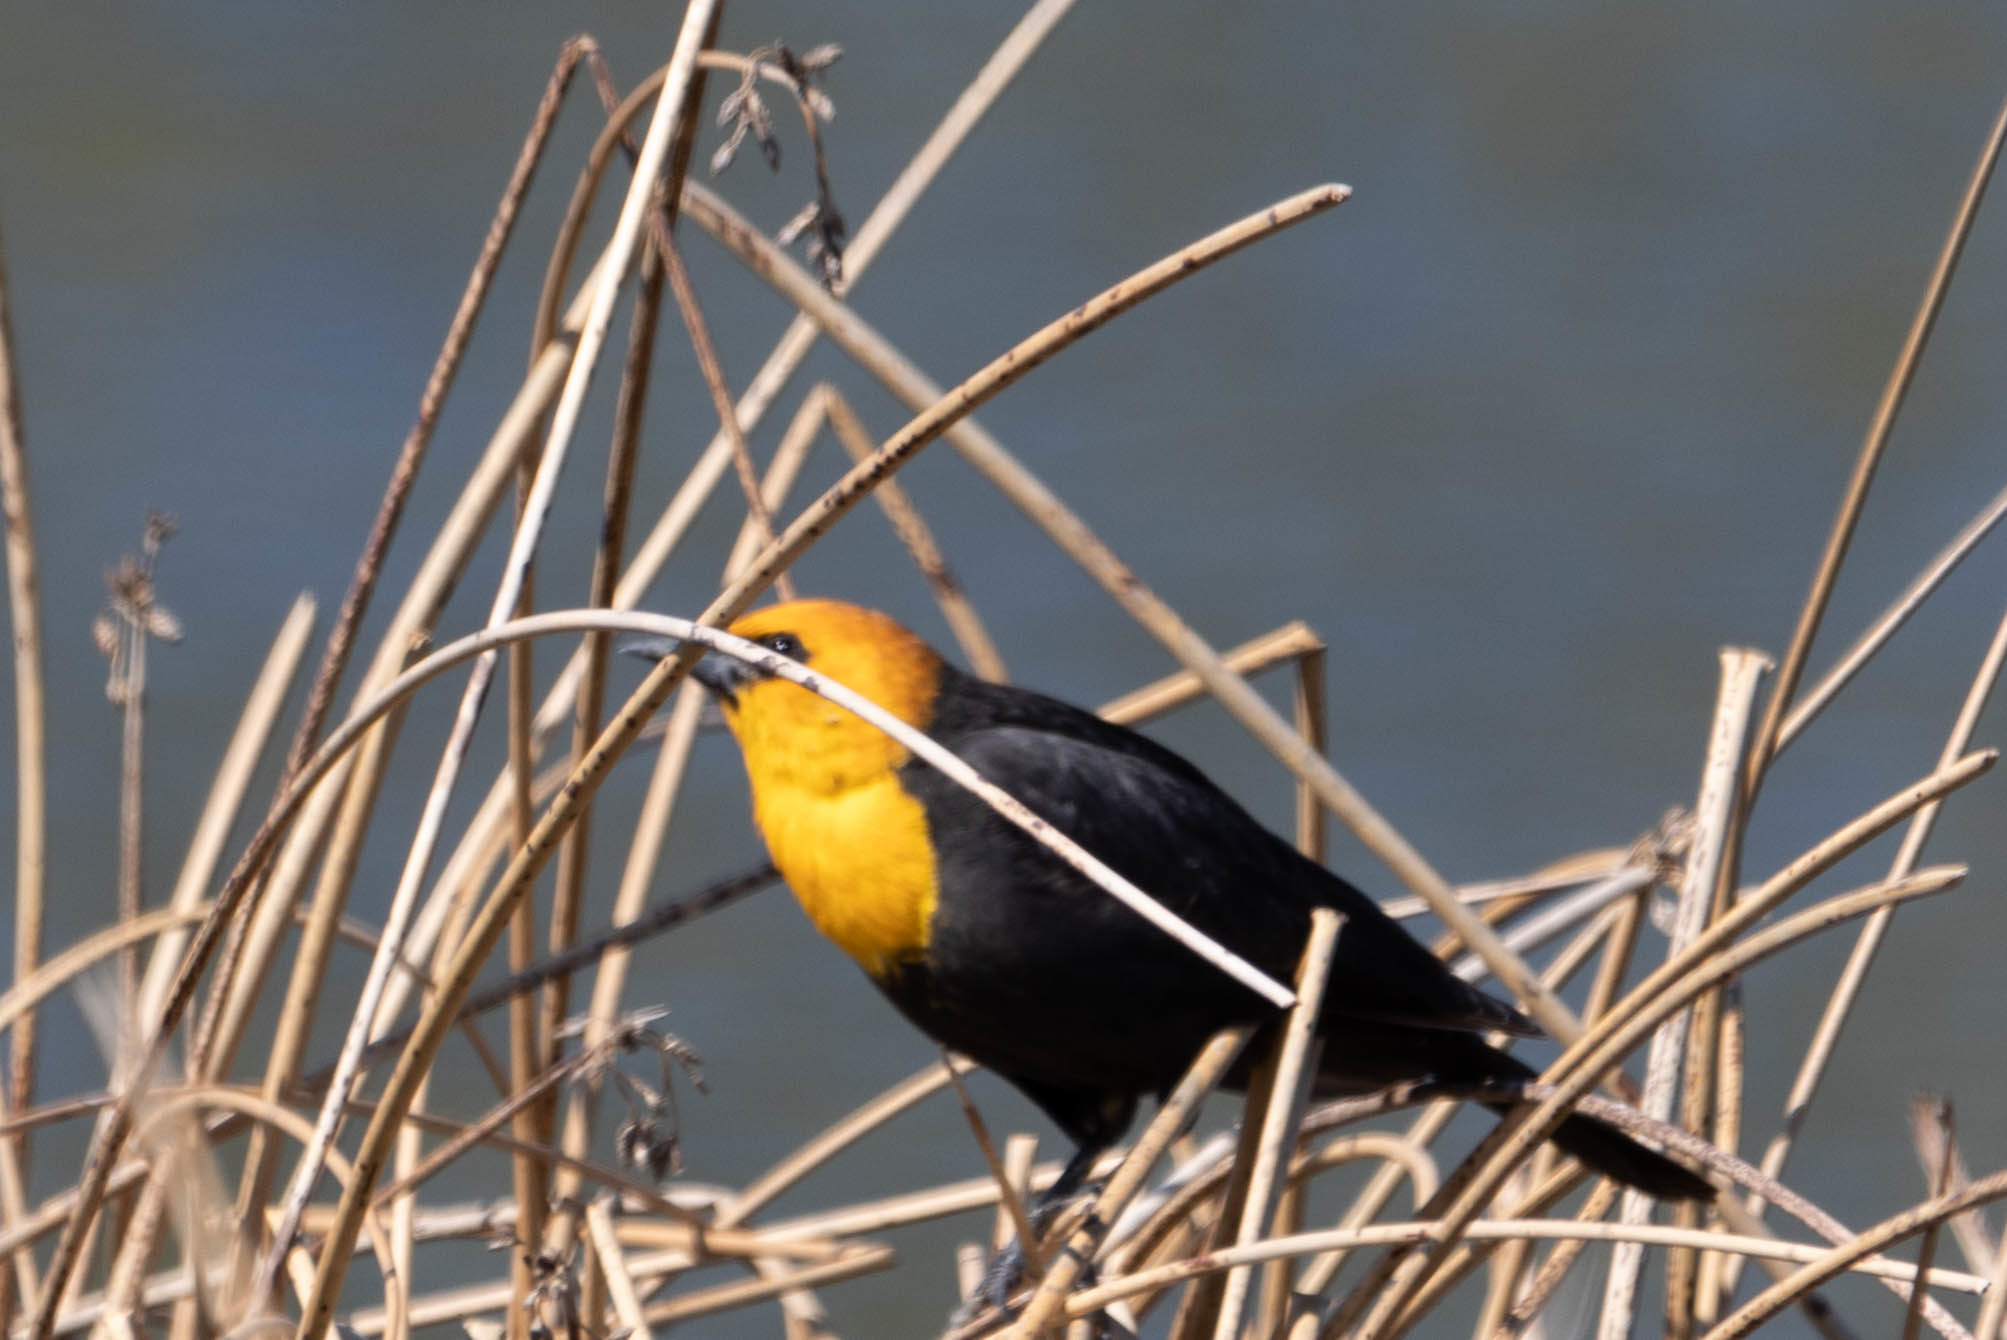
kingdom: Animalia
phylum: Chordata
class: Aves
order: Passeriformes
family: Icteridae
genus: Xanthocephalus
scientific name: Xanthocephalus xanthocephalus
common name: Yellow-headed blackbird
